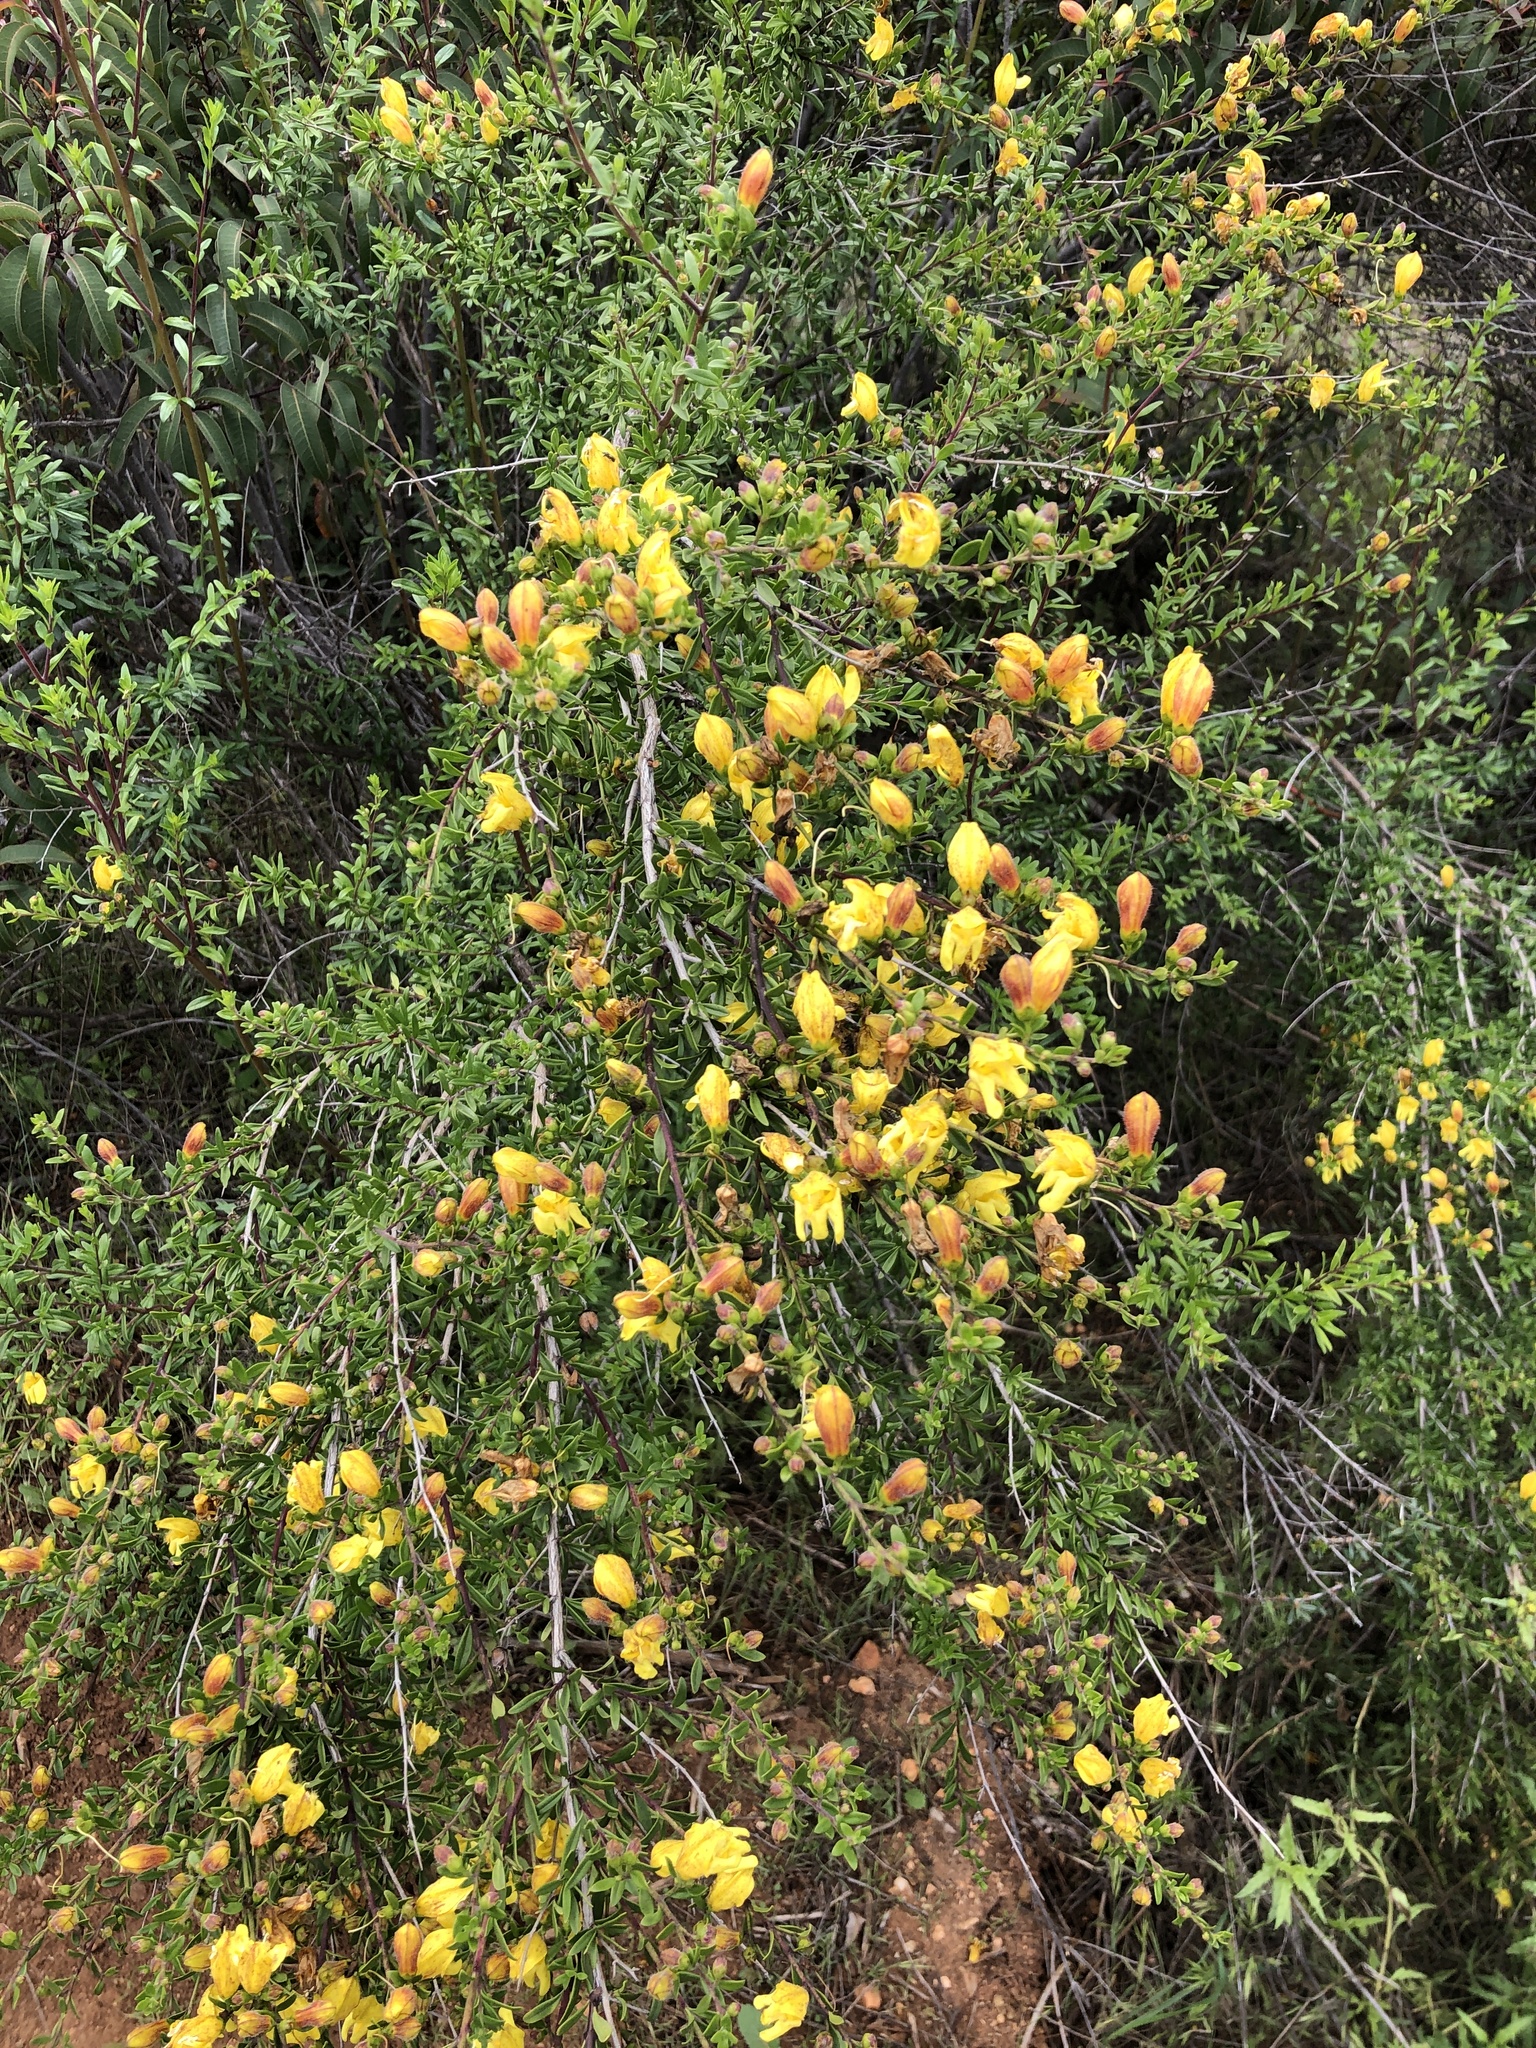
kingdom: Plantae
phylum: Tracheophyta
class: Magnoliopsida
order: Lamiales
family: Plantaginaceae
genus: Keckiella
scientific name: Keckiella antirrhinoides
